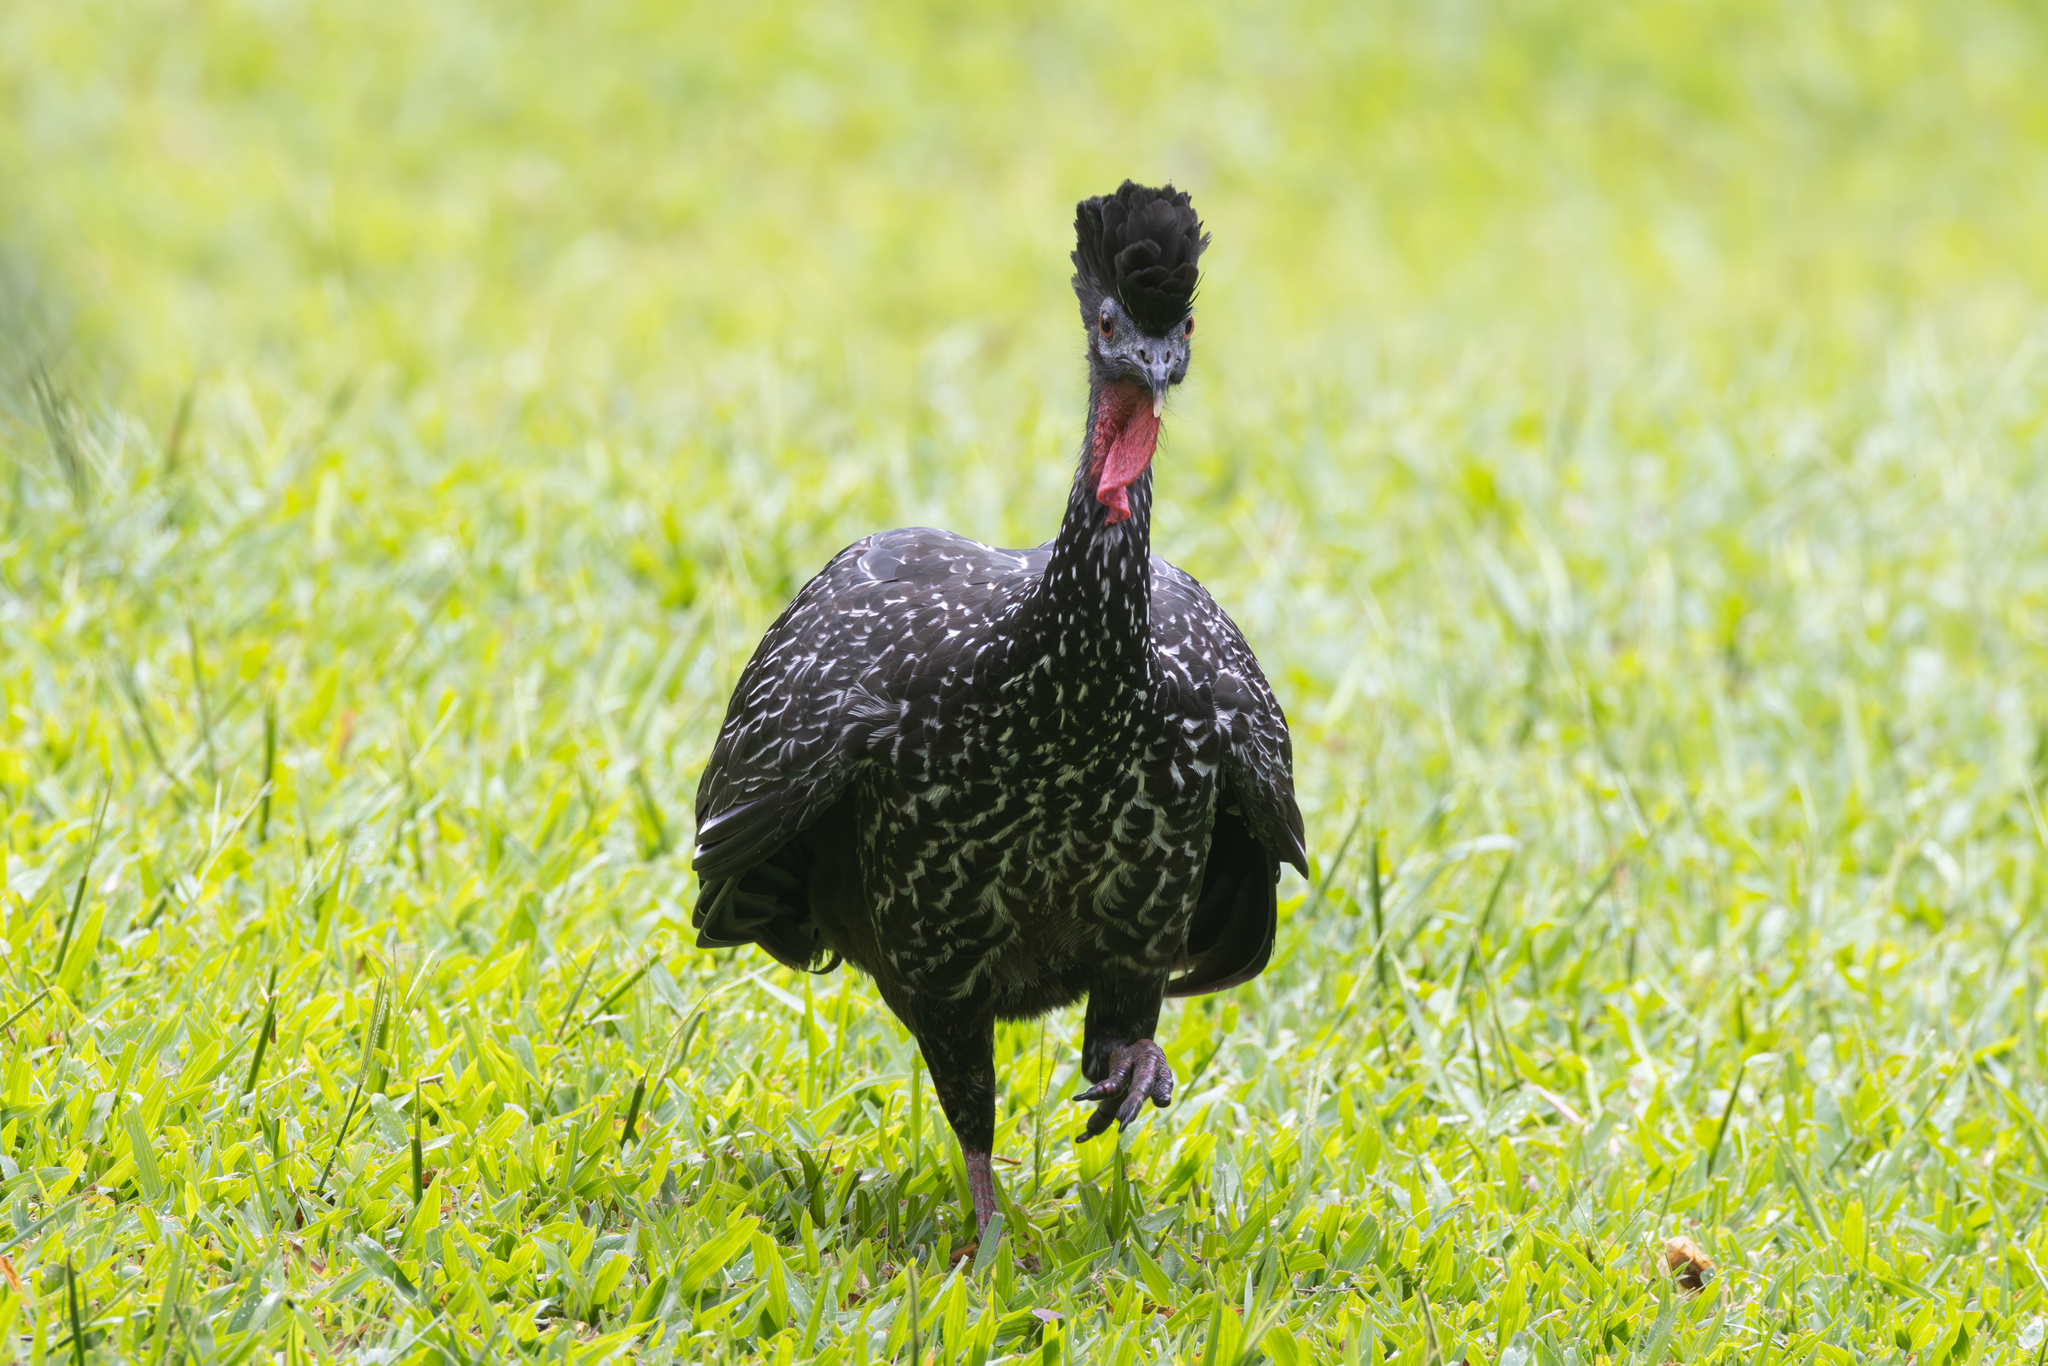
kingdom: Animalia
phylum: Chordata
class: Aves
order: Galliformes
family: Cracidae
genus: Penelope
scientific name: Penelope purpurascens
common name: Crested guan
